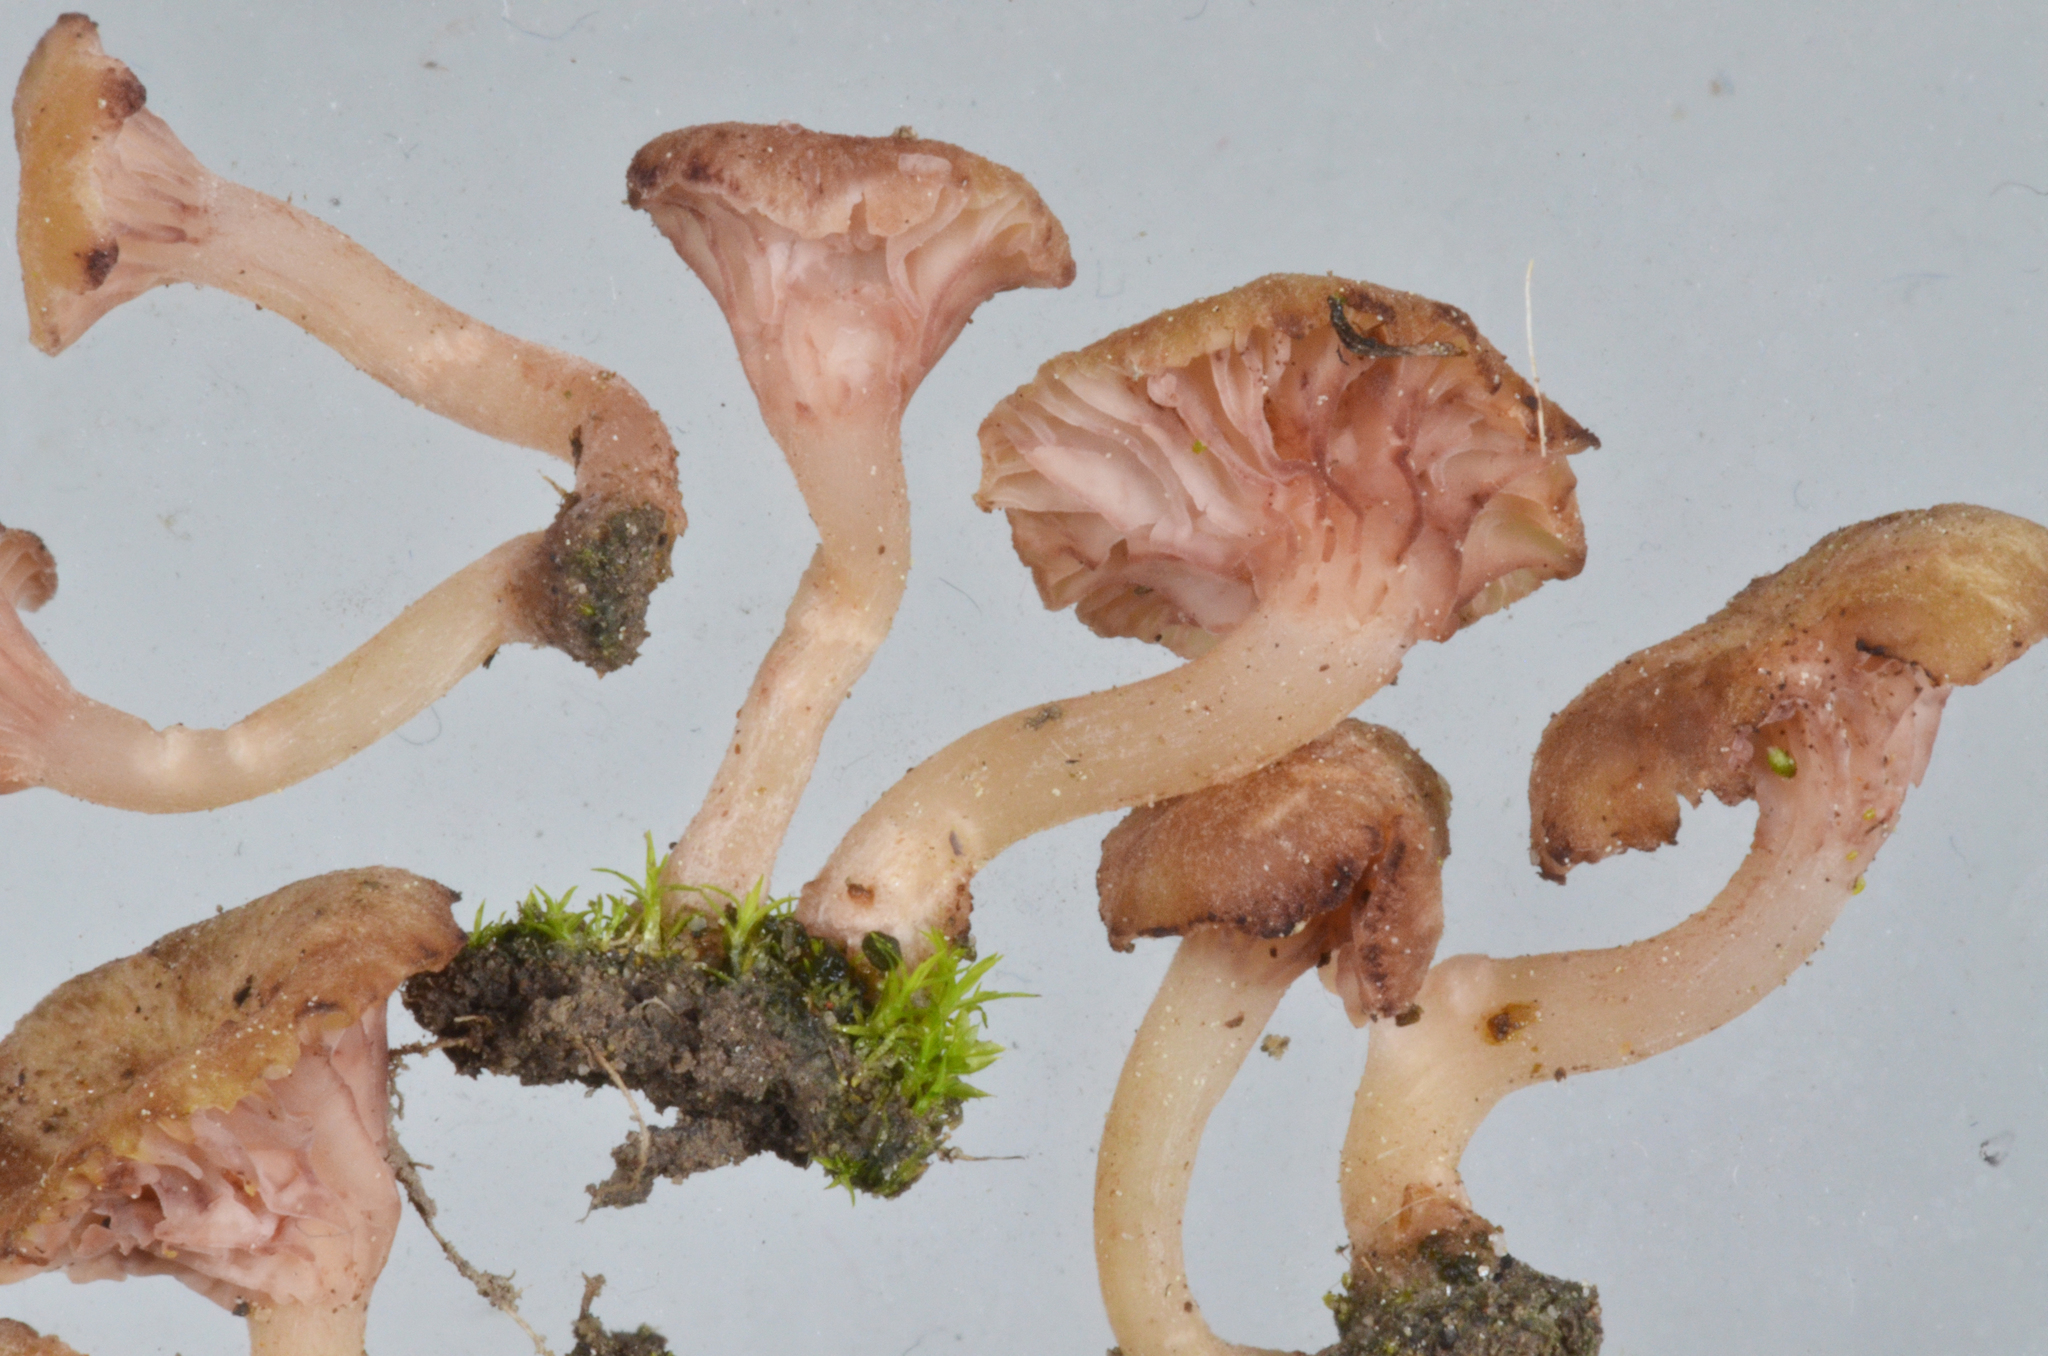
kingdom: Fungi
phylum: Basidiomycota
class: Agaricomycetes
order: Hymenochaetales
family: Rickenellaceae
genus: Contumyces
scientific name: Contumyces rosellus
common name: Rosy navel
